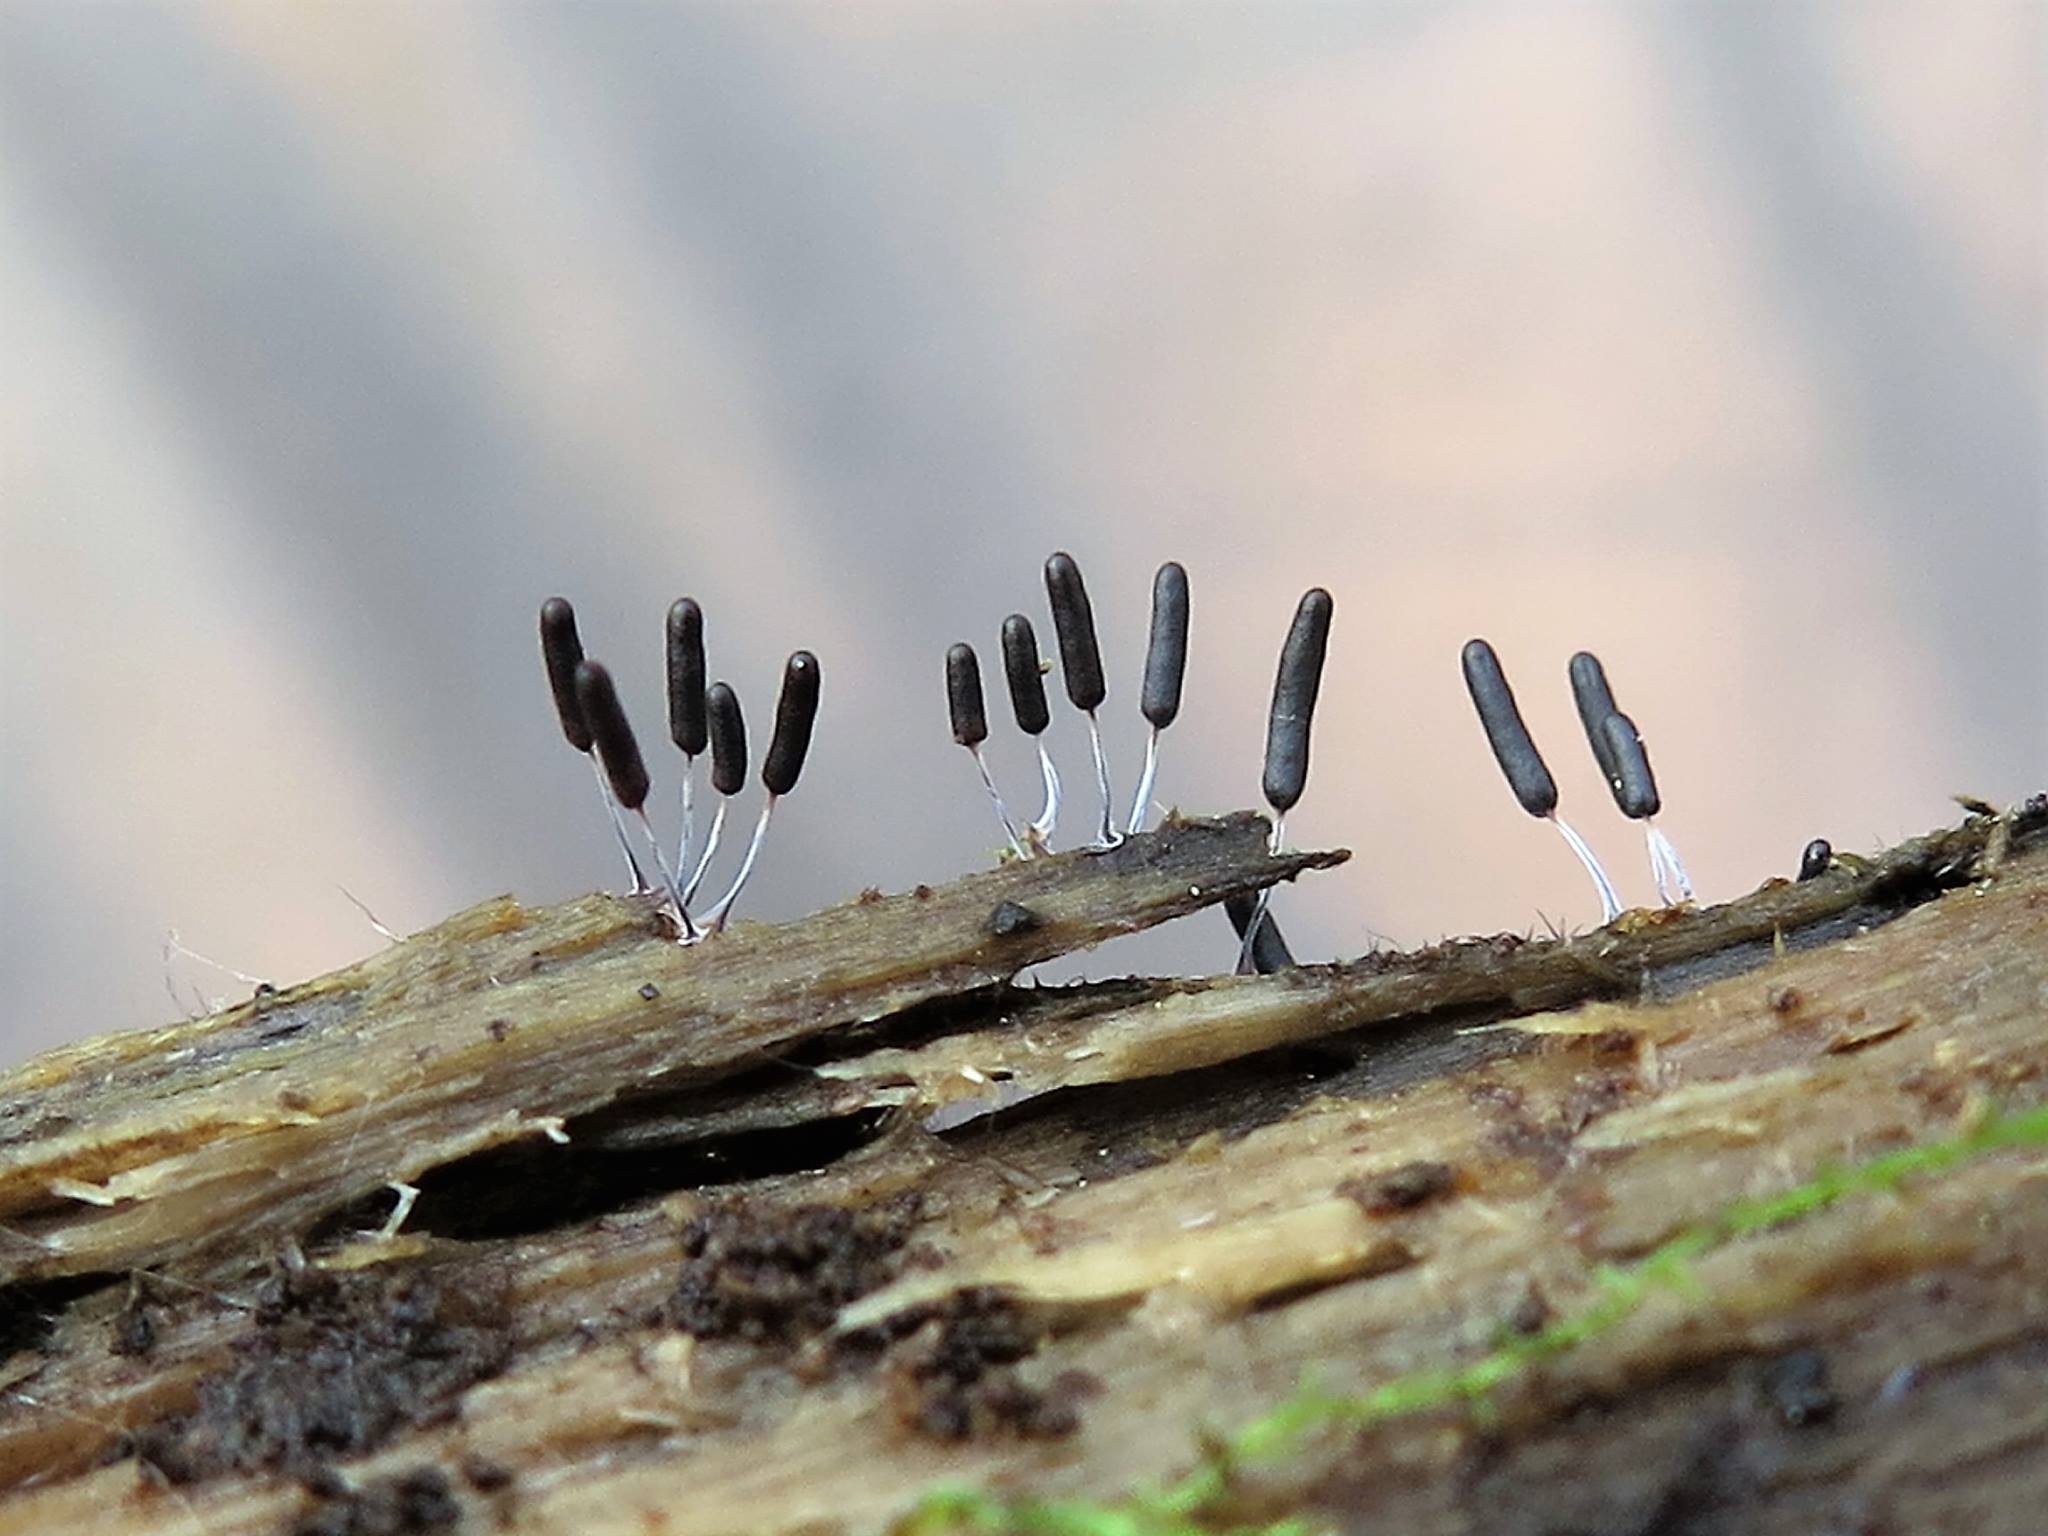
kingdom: Protozoa
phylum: Mycetozoa
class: Myxomycetes
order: Stemonitidales
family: Stemonitidaceae
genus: Stemonitopsis
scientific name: Stemonitopsis typhina
